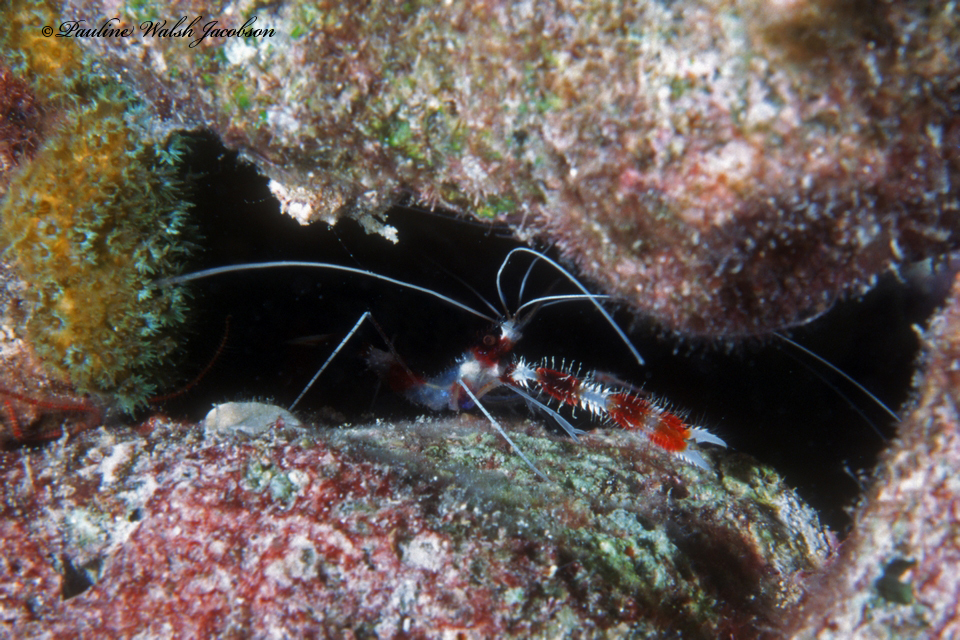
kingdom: Animalia
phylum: Arthropoda
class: Malacostraca
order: Decapoda
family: Stenopodidae
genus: Stenopus
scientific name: Stenopus hispidus
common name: Banded coral shrimp
